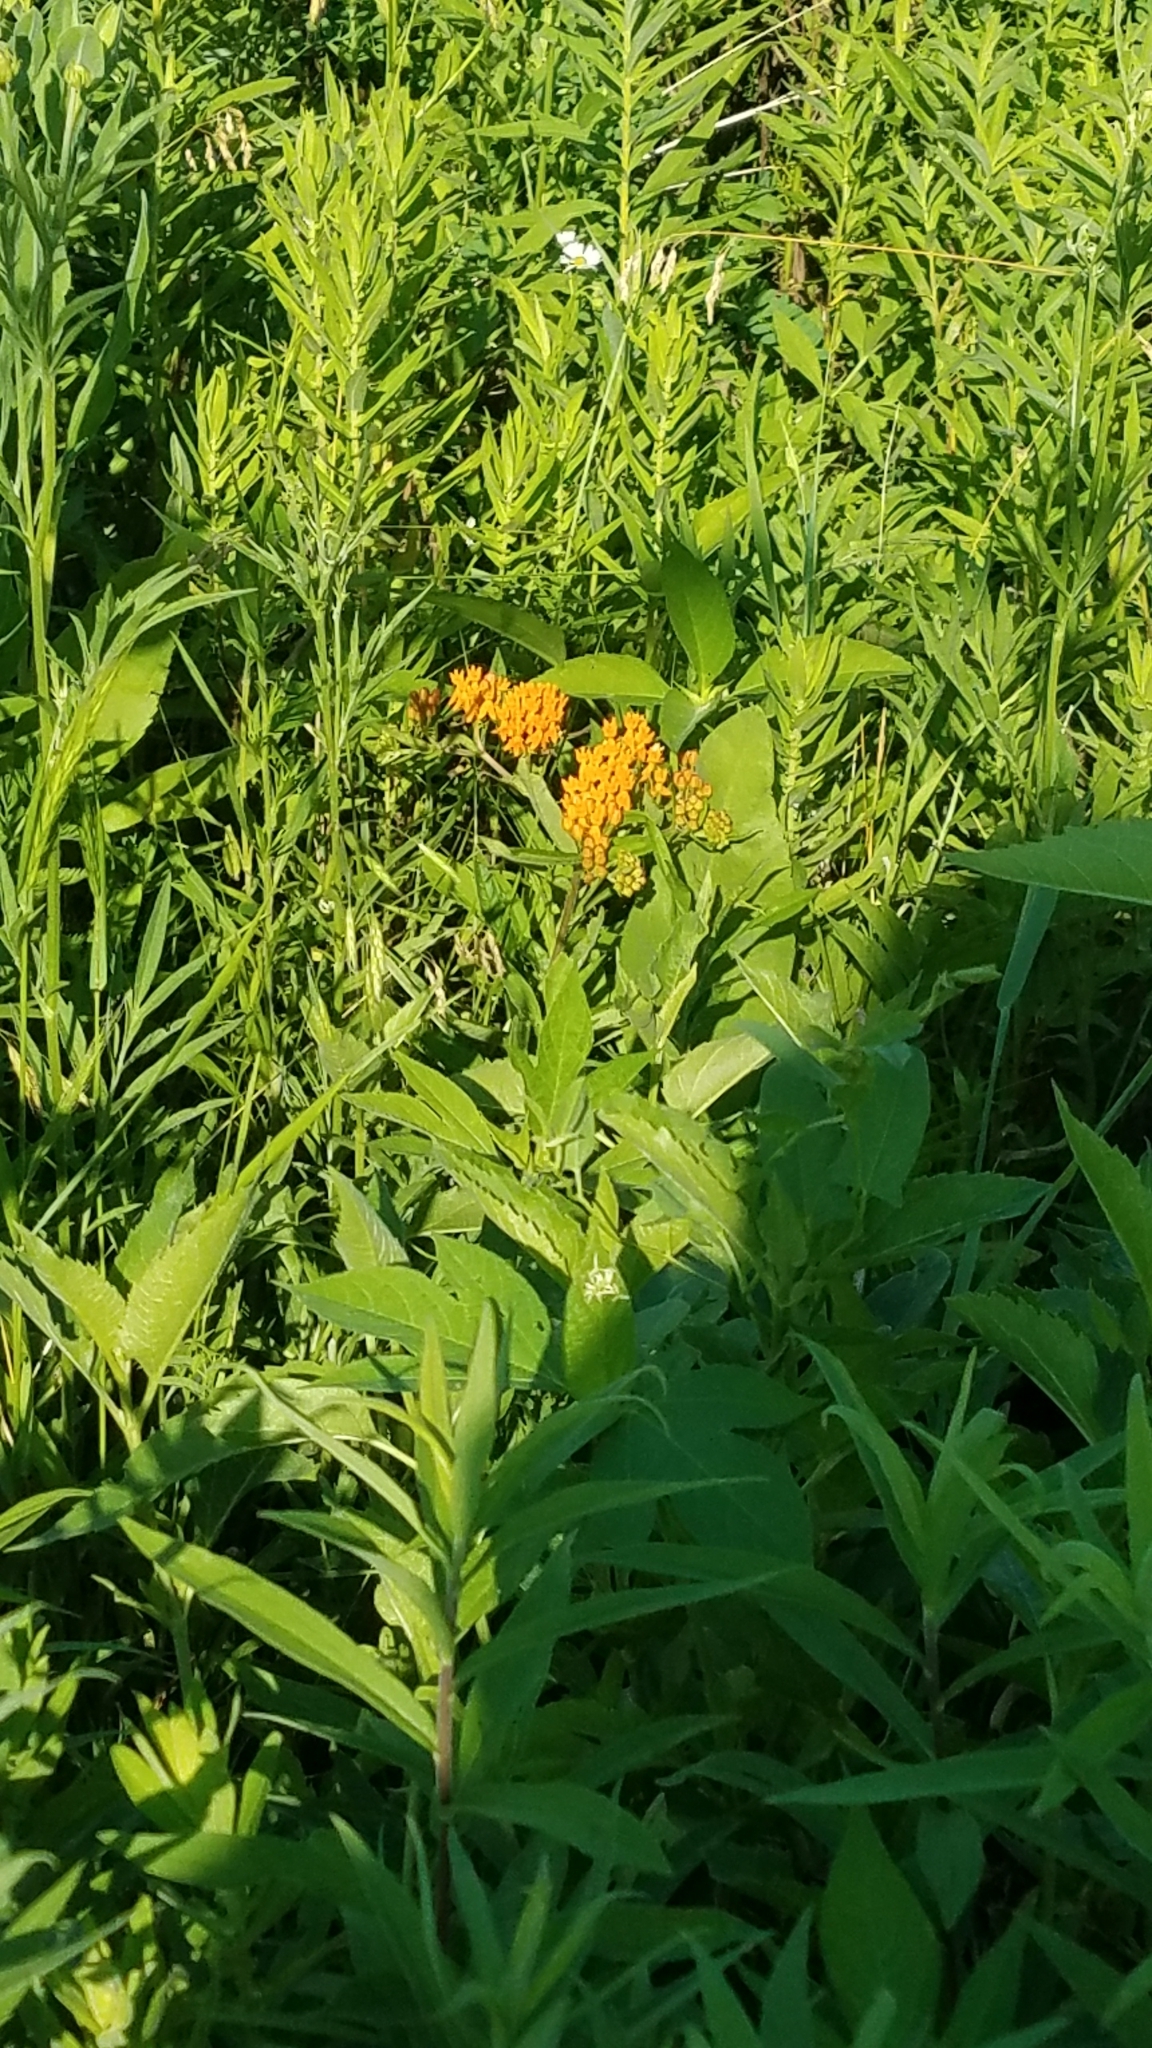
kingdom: Plantae
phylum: Tracheophyta
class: Magnoliopsida
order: Gentianales
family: Apocynaceae
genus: Asclepias
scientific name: Asclepias tuberosa
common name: Butterfly milkweed
